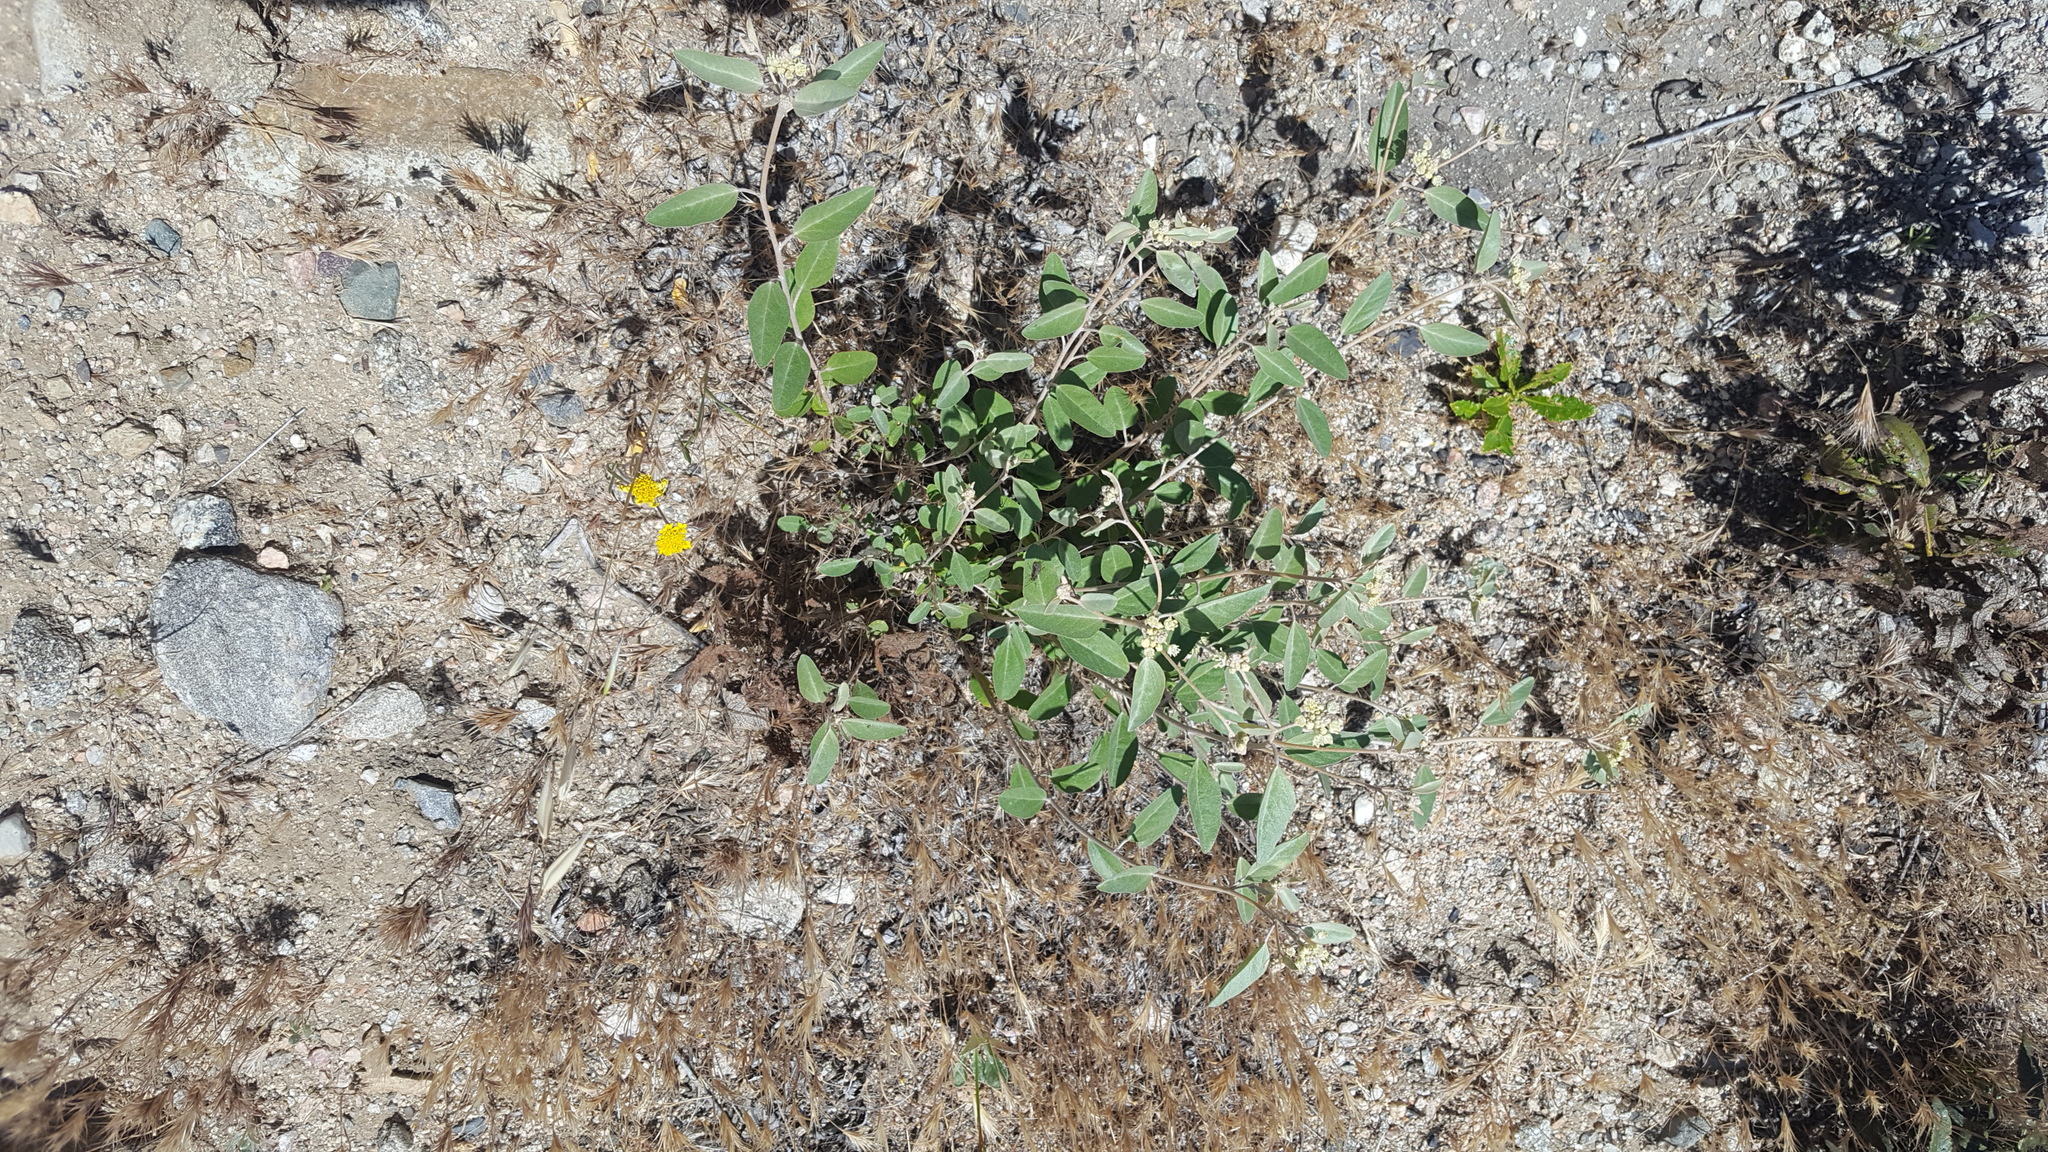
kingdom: Plantae
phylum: Tracheophyta
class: Magnoliopsida
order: Malpighiales
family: Euphorbiaceae
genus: Croton
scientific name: Croton californicus
